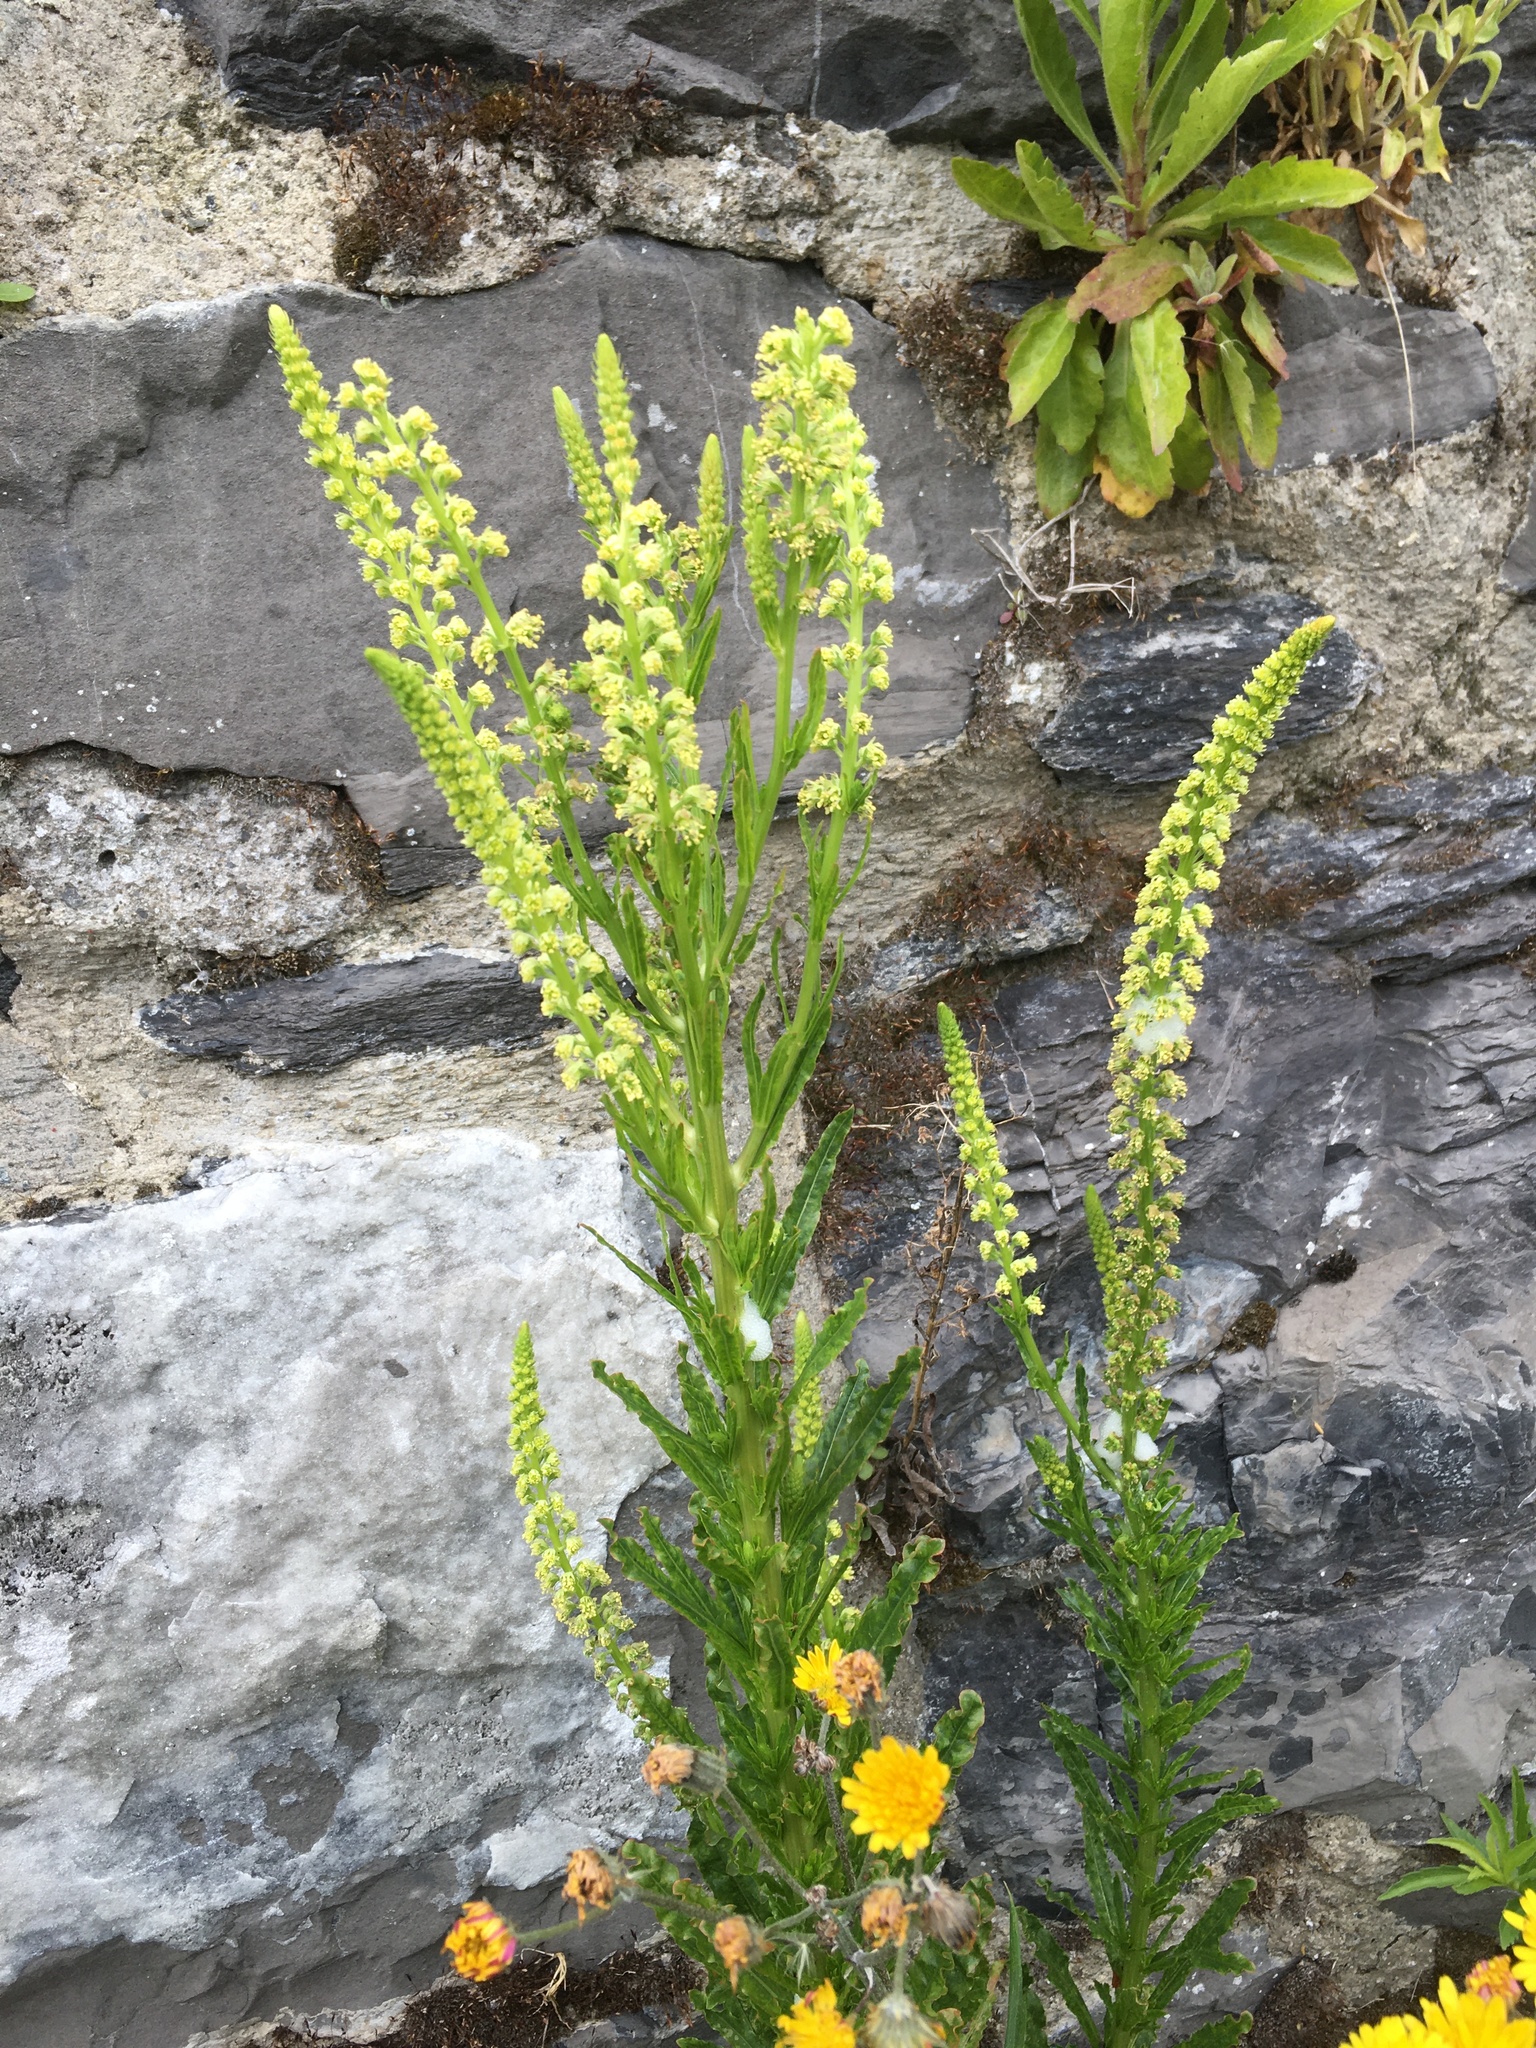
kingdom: Plantae
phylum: Tracheophyta
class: Magnoliopsida
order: Brassicales
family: Resedaceae
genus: Reseda
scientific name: Reseda luteola
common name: Weld
